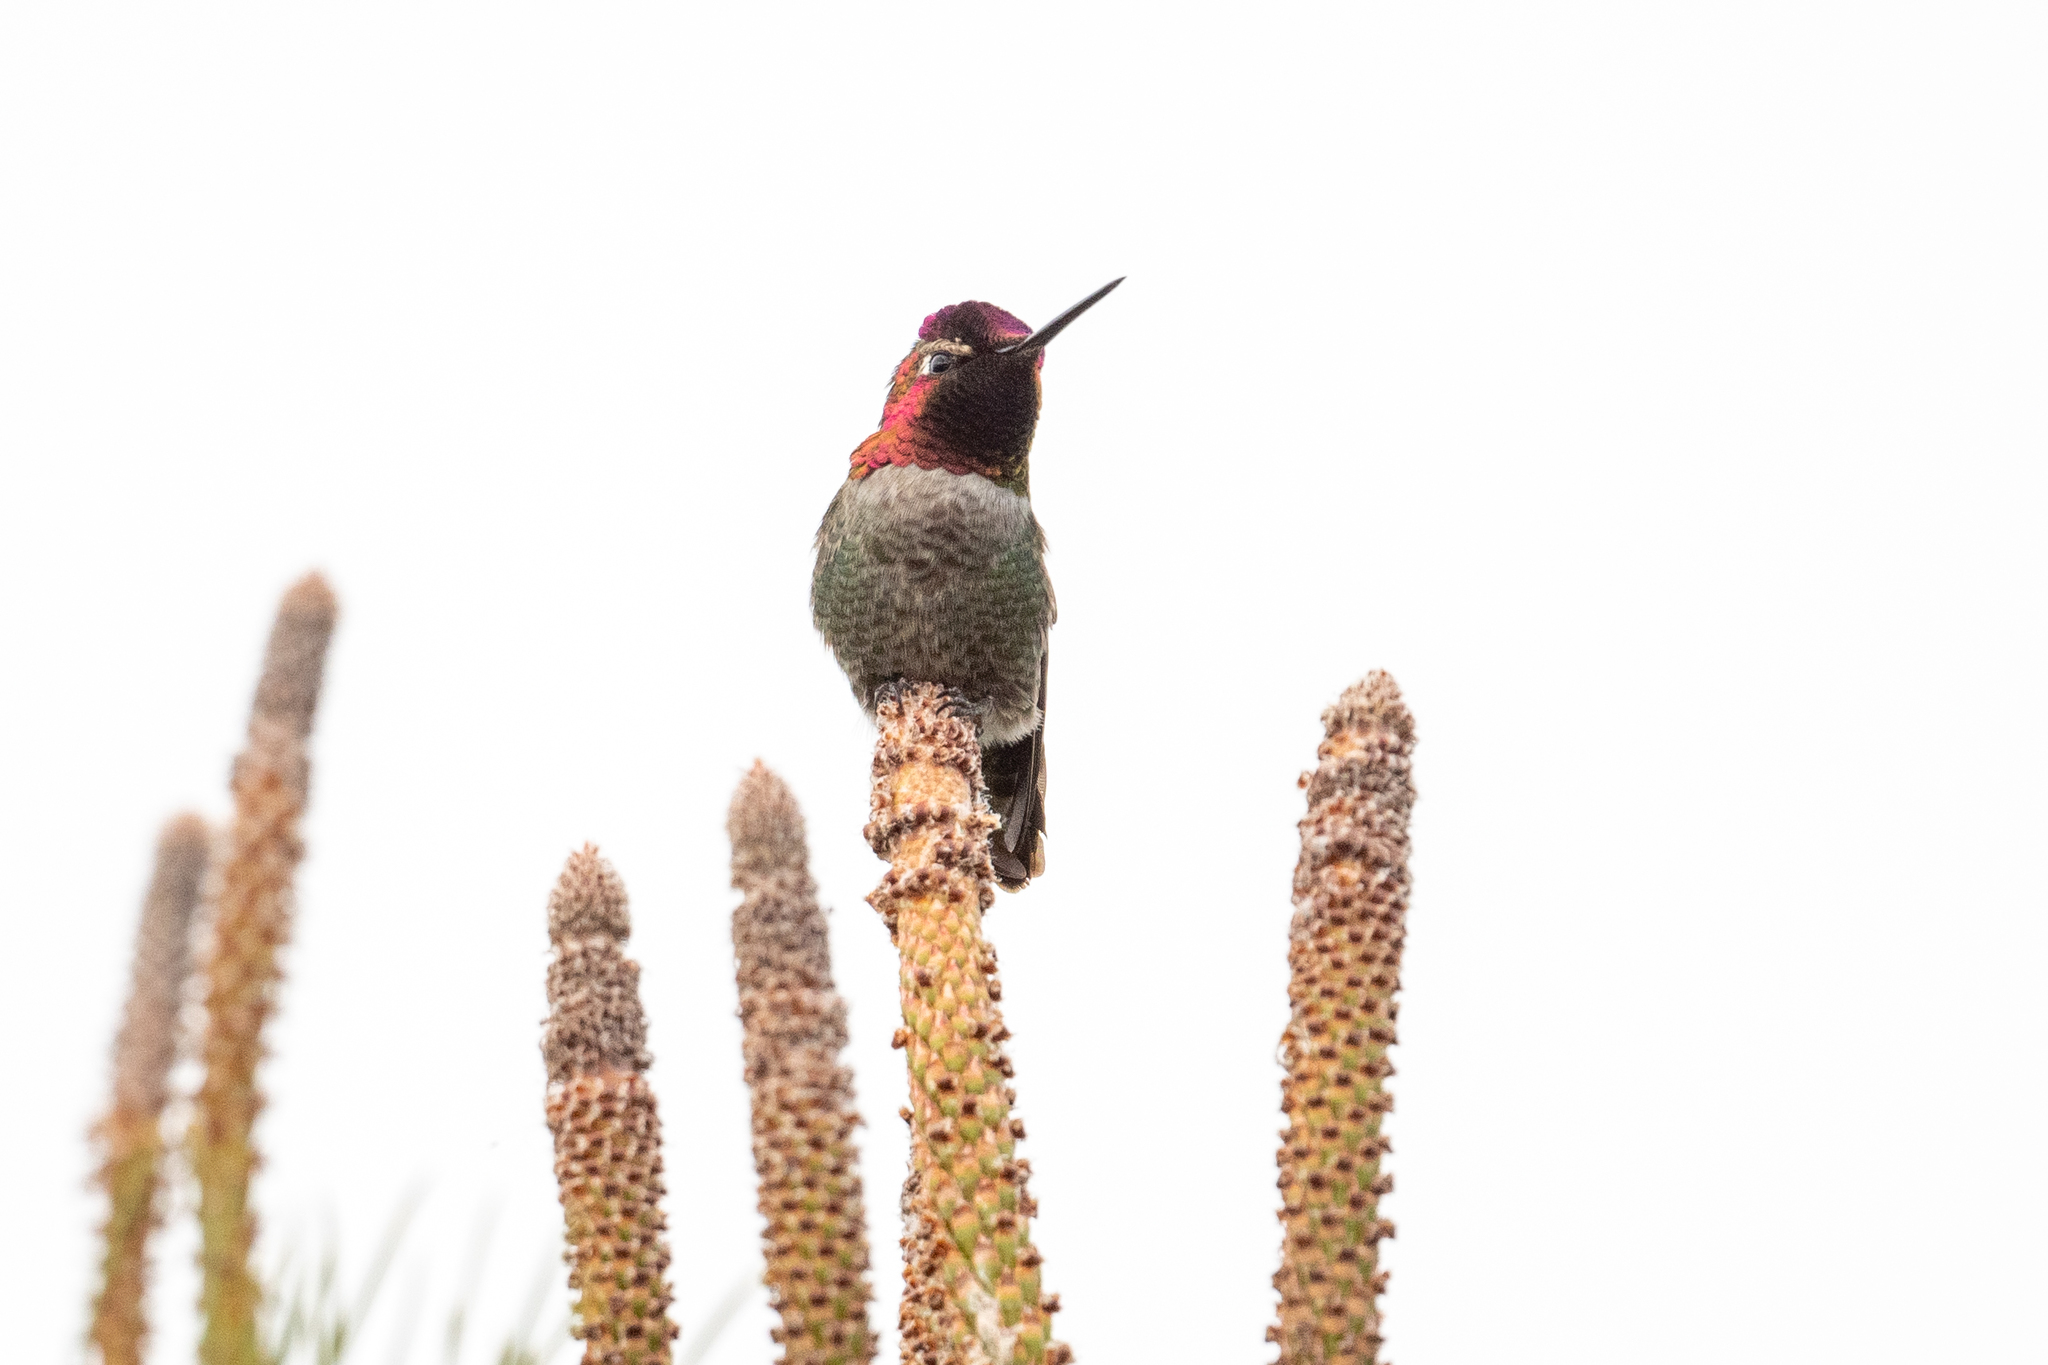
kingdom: Animalia
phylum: Chordata
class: Aves
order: Apodiformes
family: Trochilidae
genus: Calypte
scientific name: Calypte anna
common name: Anna's hummingbird
